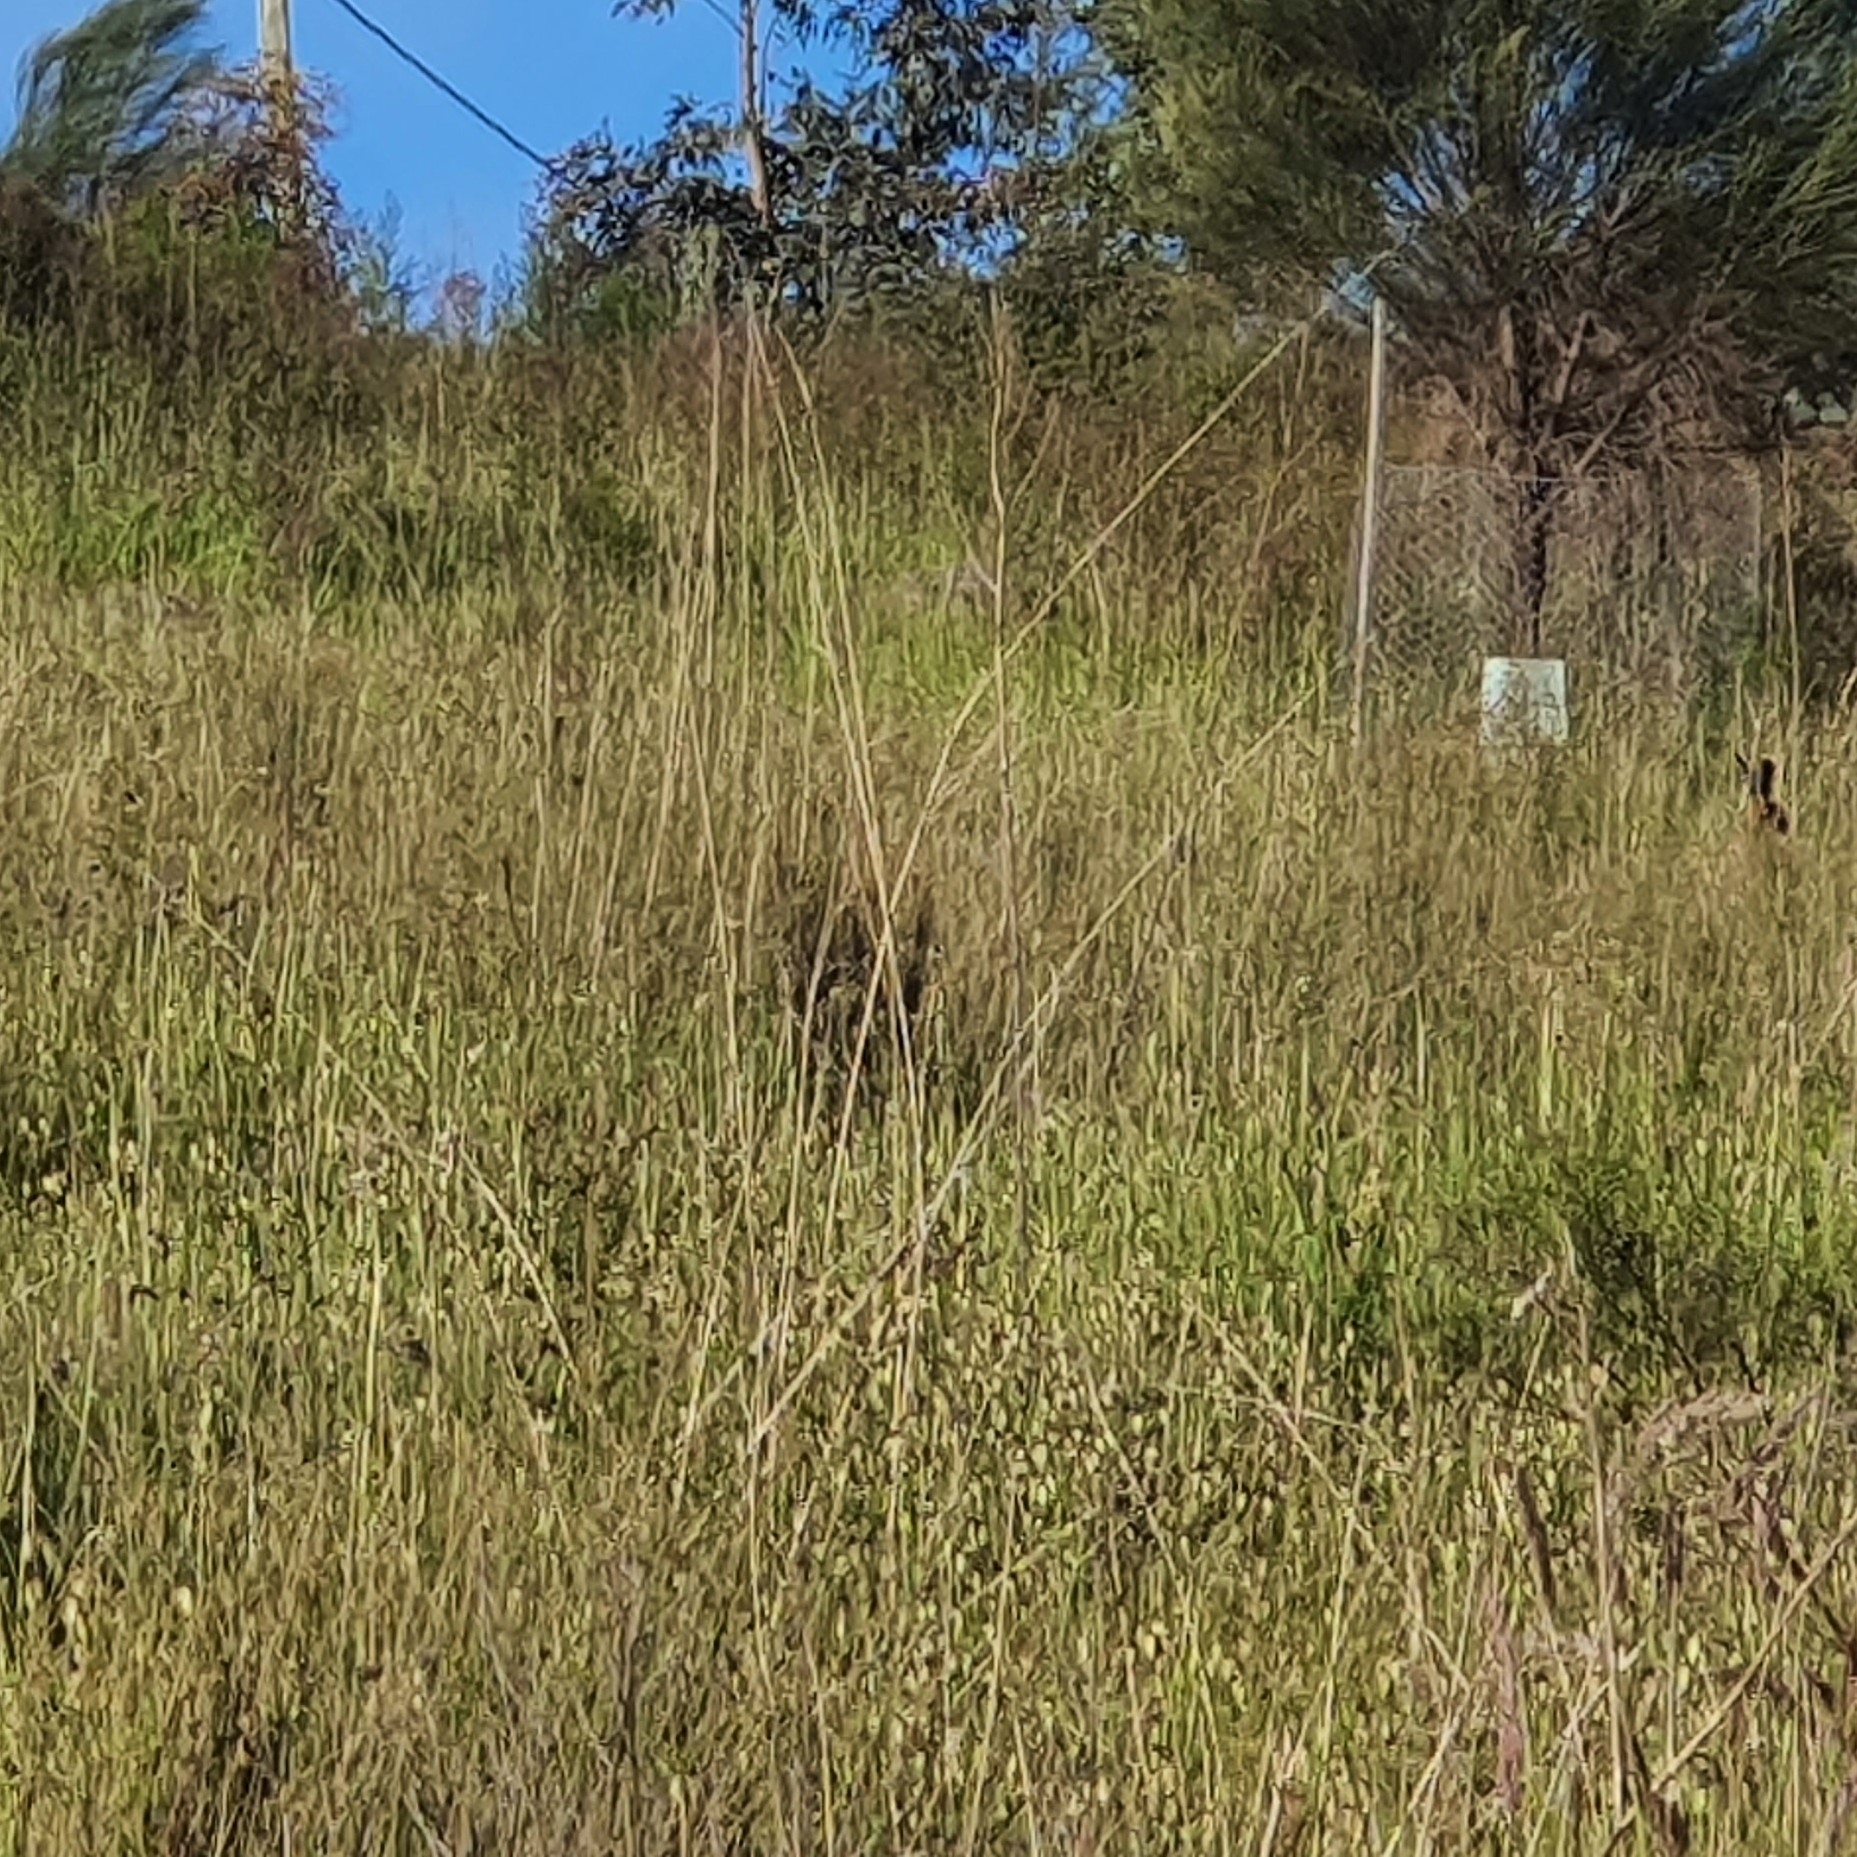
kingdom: Animalia
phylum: Chordata
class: Mammalia
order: Lagomorpha
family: Leporidae
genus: Lepus
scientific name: Lepus europaeus
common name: European hare
